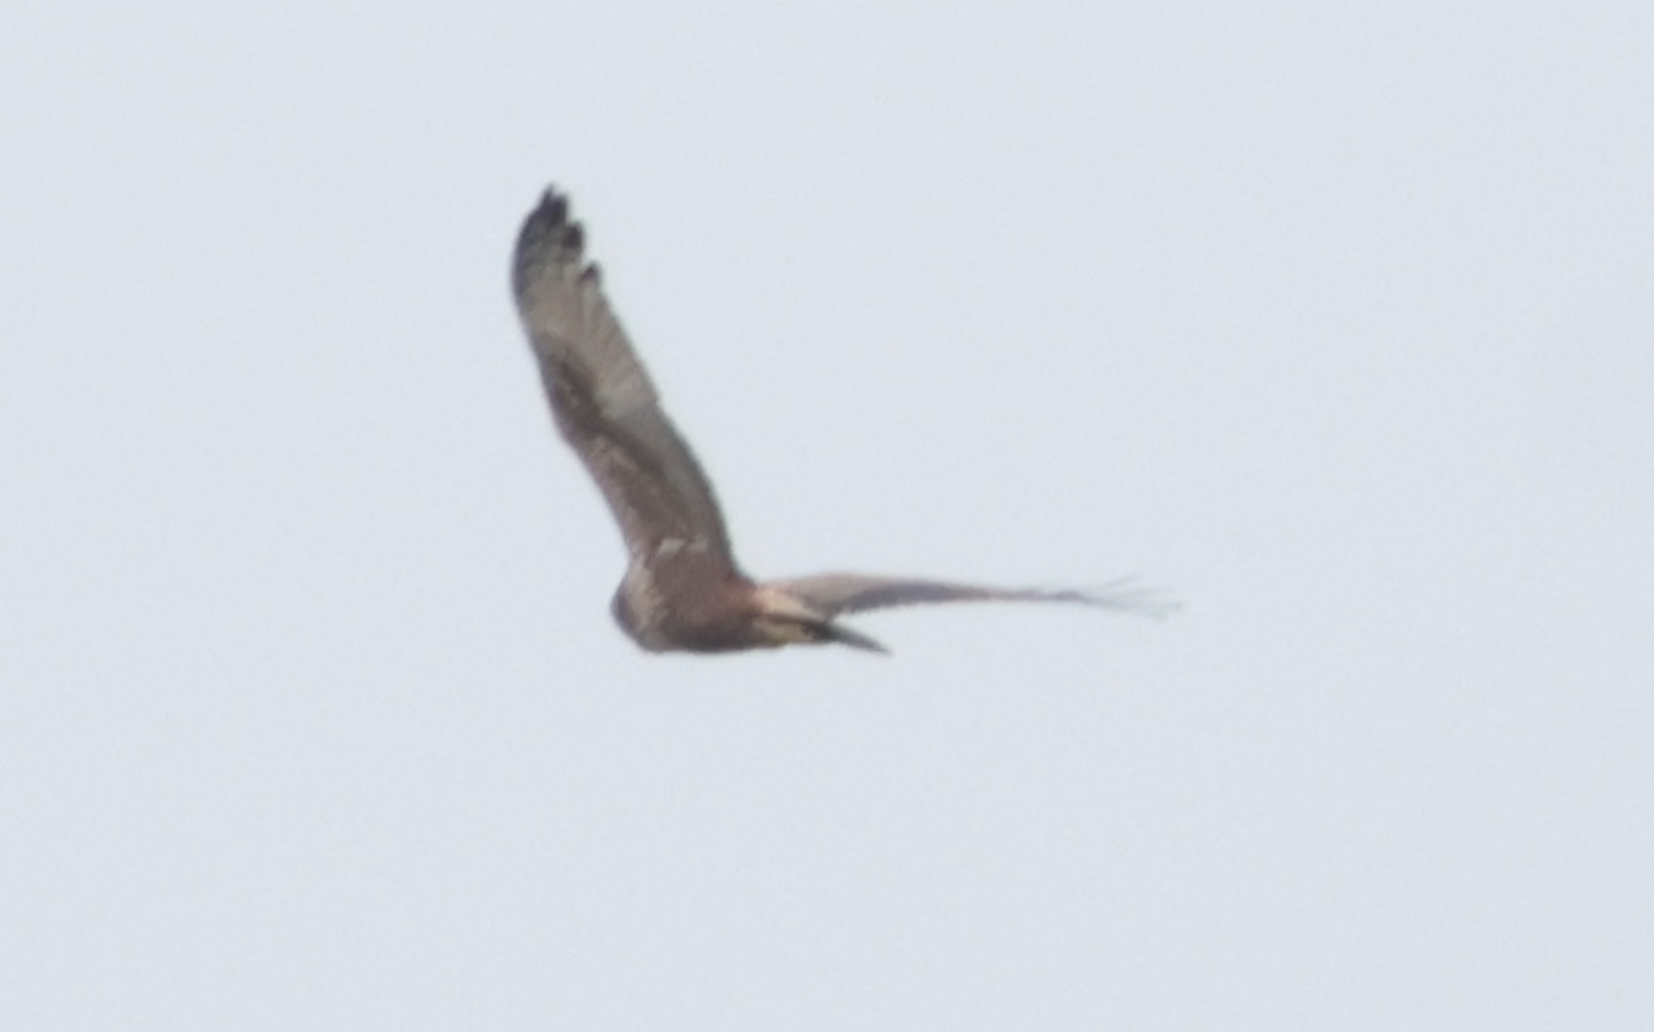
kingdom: Animalia
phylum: Chordata
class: Aves
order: Accipitriformes
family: Accipitridae
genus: Circus
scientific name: Circus spilonotus
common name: Eastern marsh-harrier
